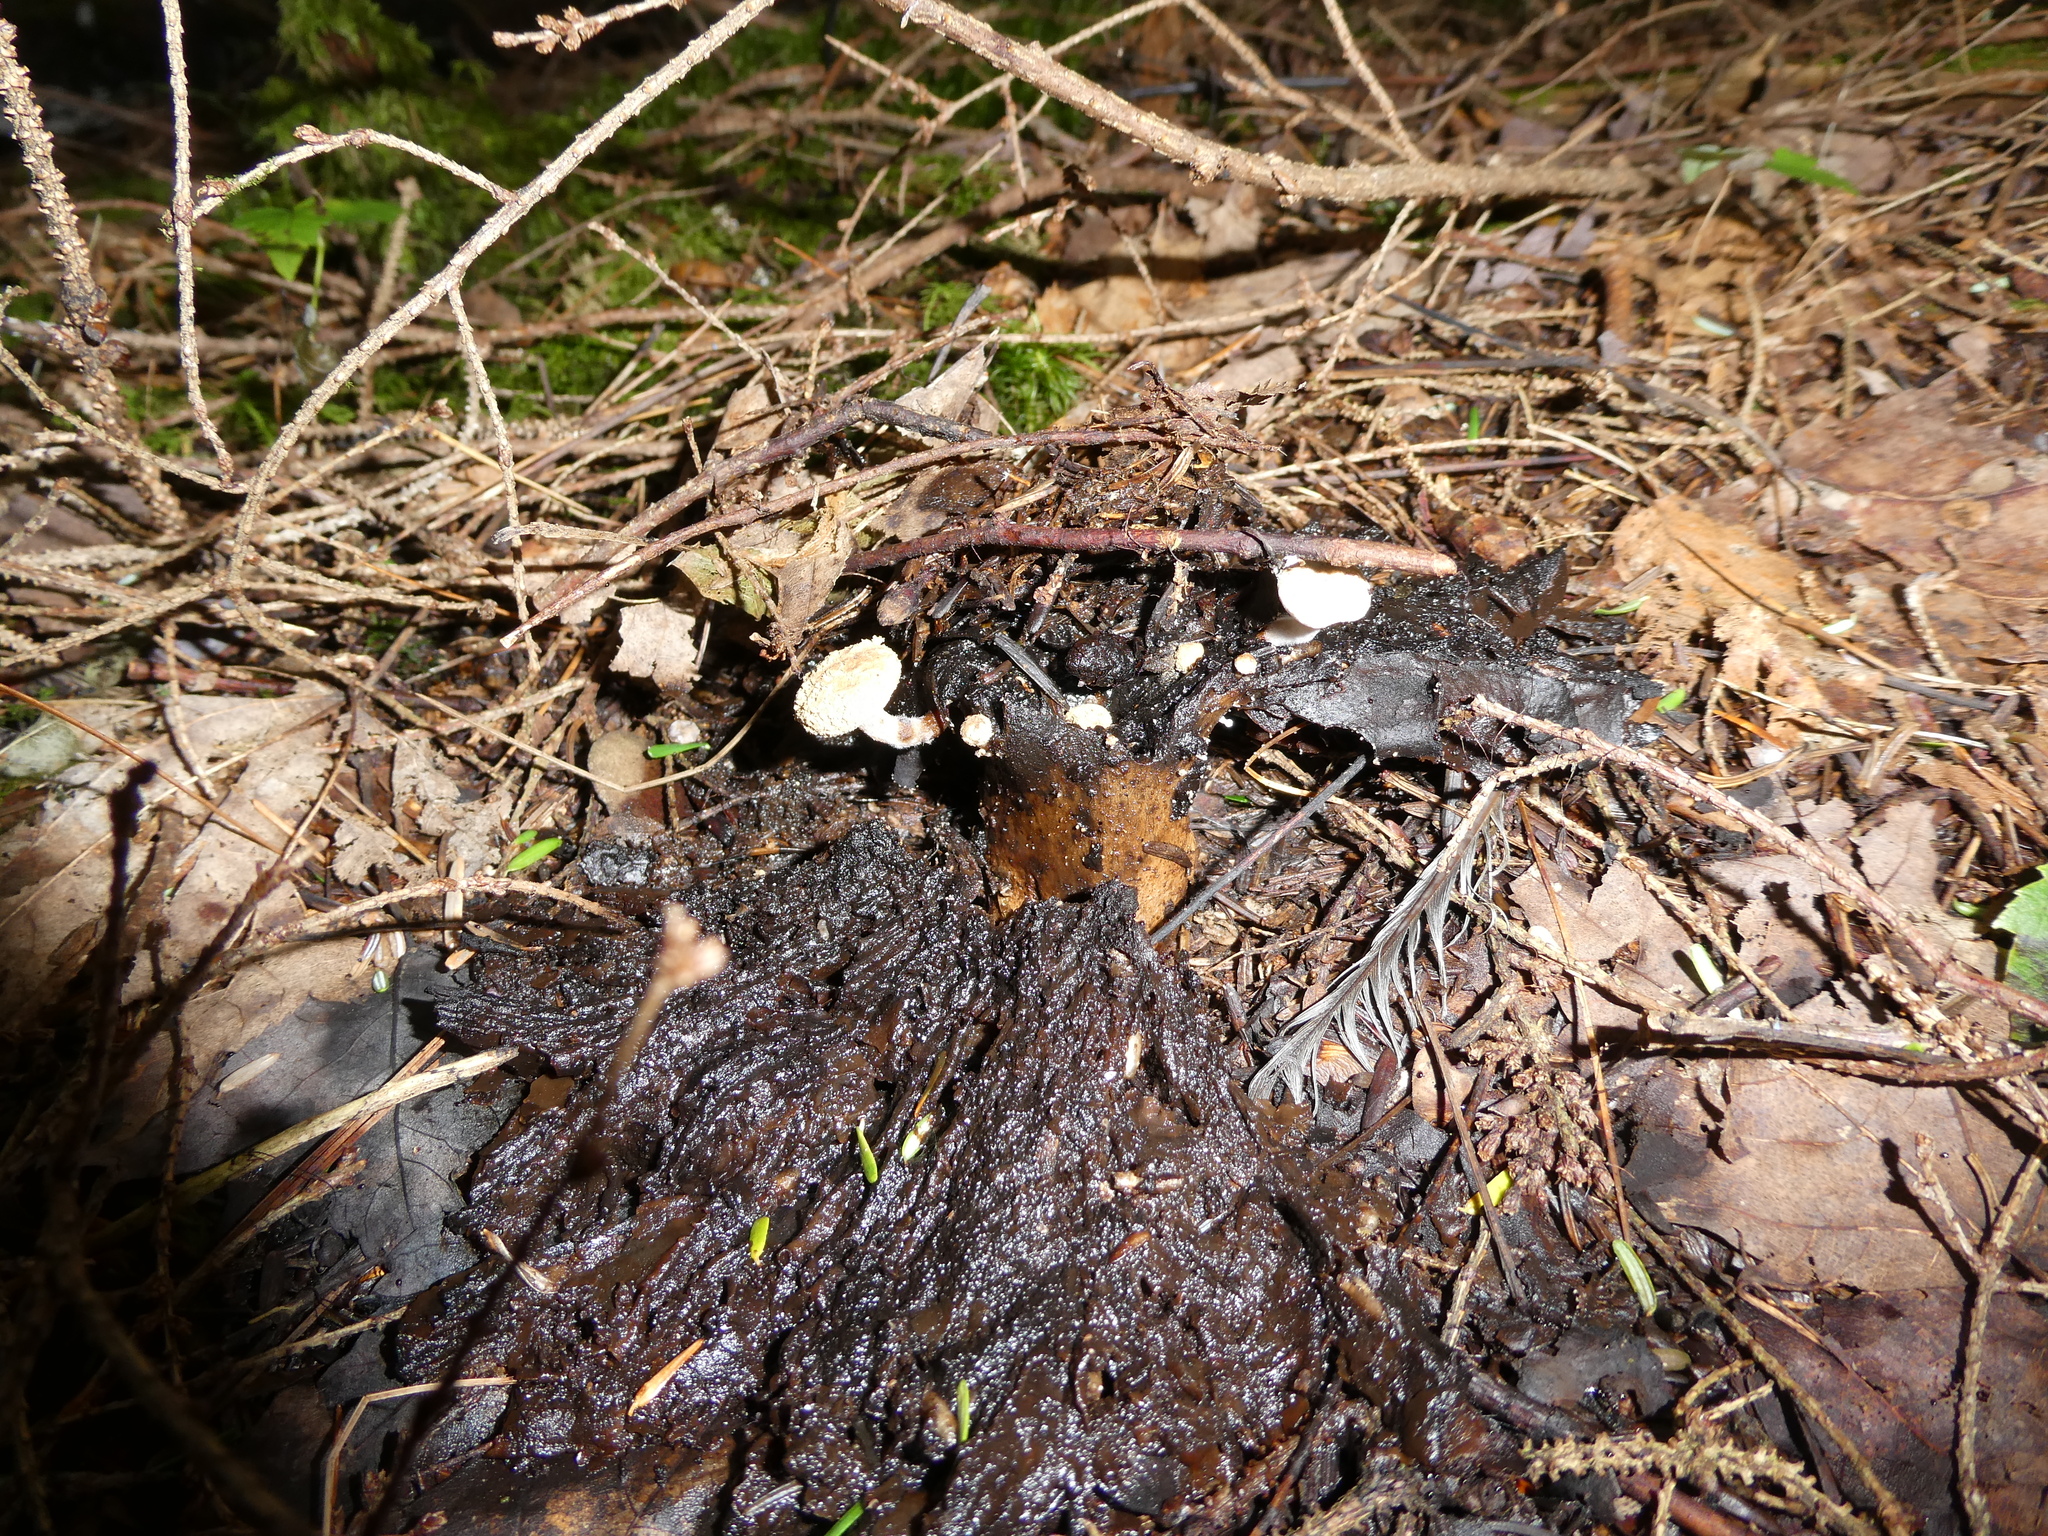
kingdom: Fungi
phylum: Basidiomycota
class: Agaricomycetes
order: Agaricales
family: Lyophyllaceae
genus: Asterophora
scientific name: Asterophora lycoperdoides
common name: Pick-a-back toadstool
